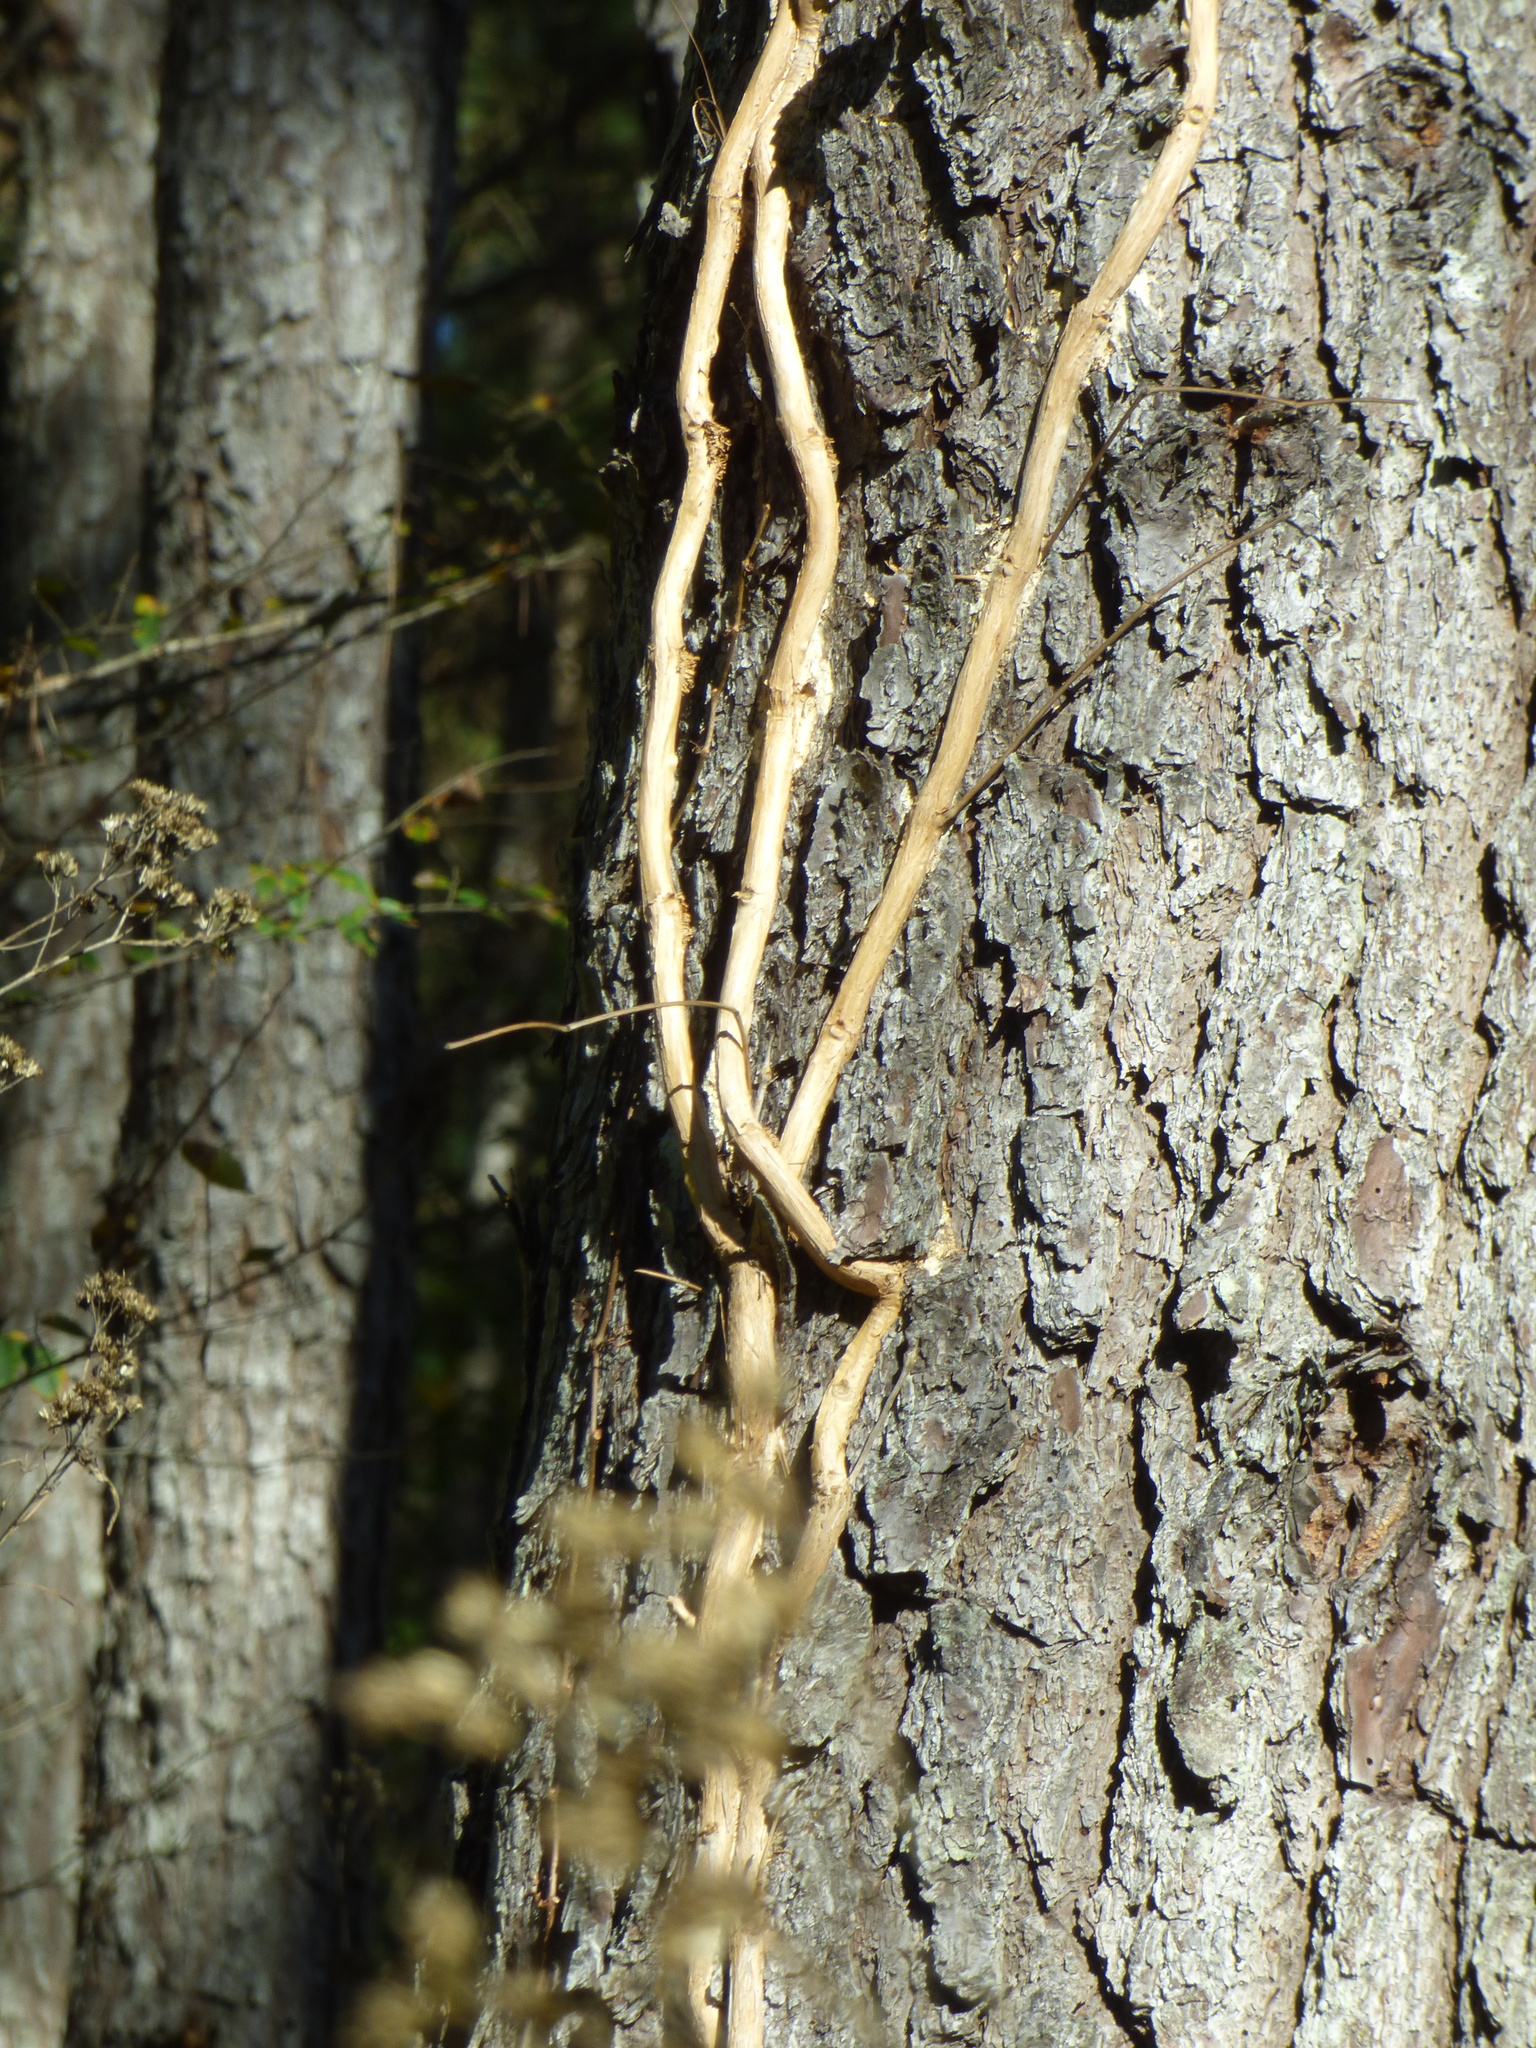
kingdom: Plantae
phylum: Tracheophyta
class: Magnoliopsida
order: Lamiales
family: Bignoniaceae
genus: Campsis
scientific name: Campsis radicans
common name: Trumpet-creeper
